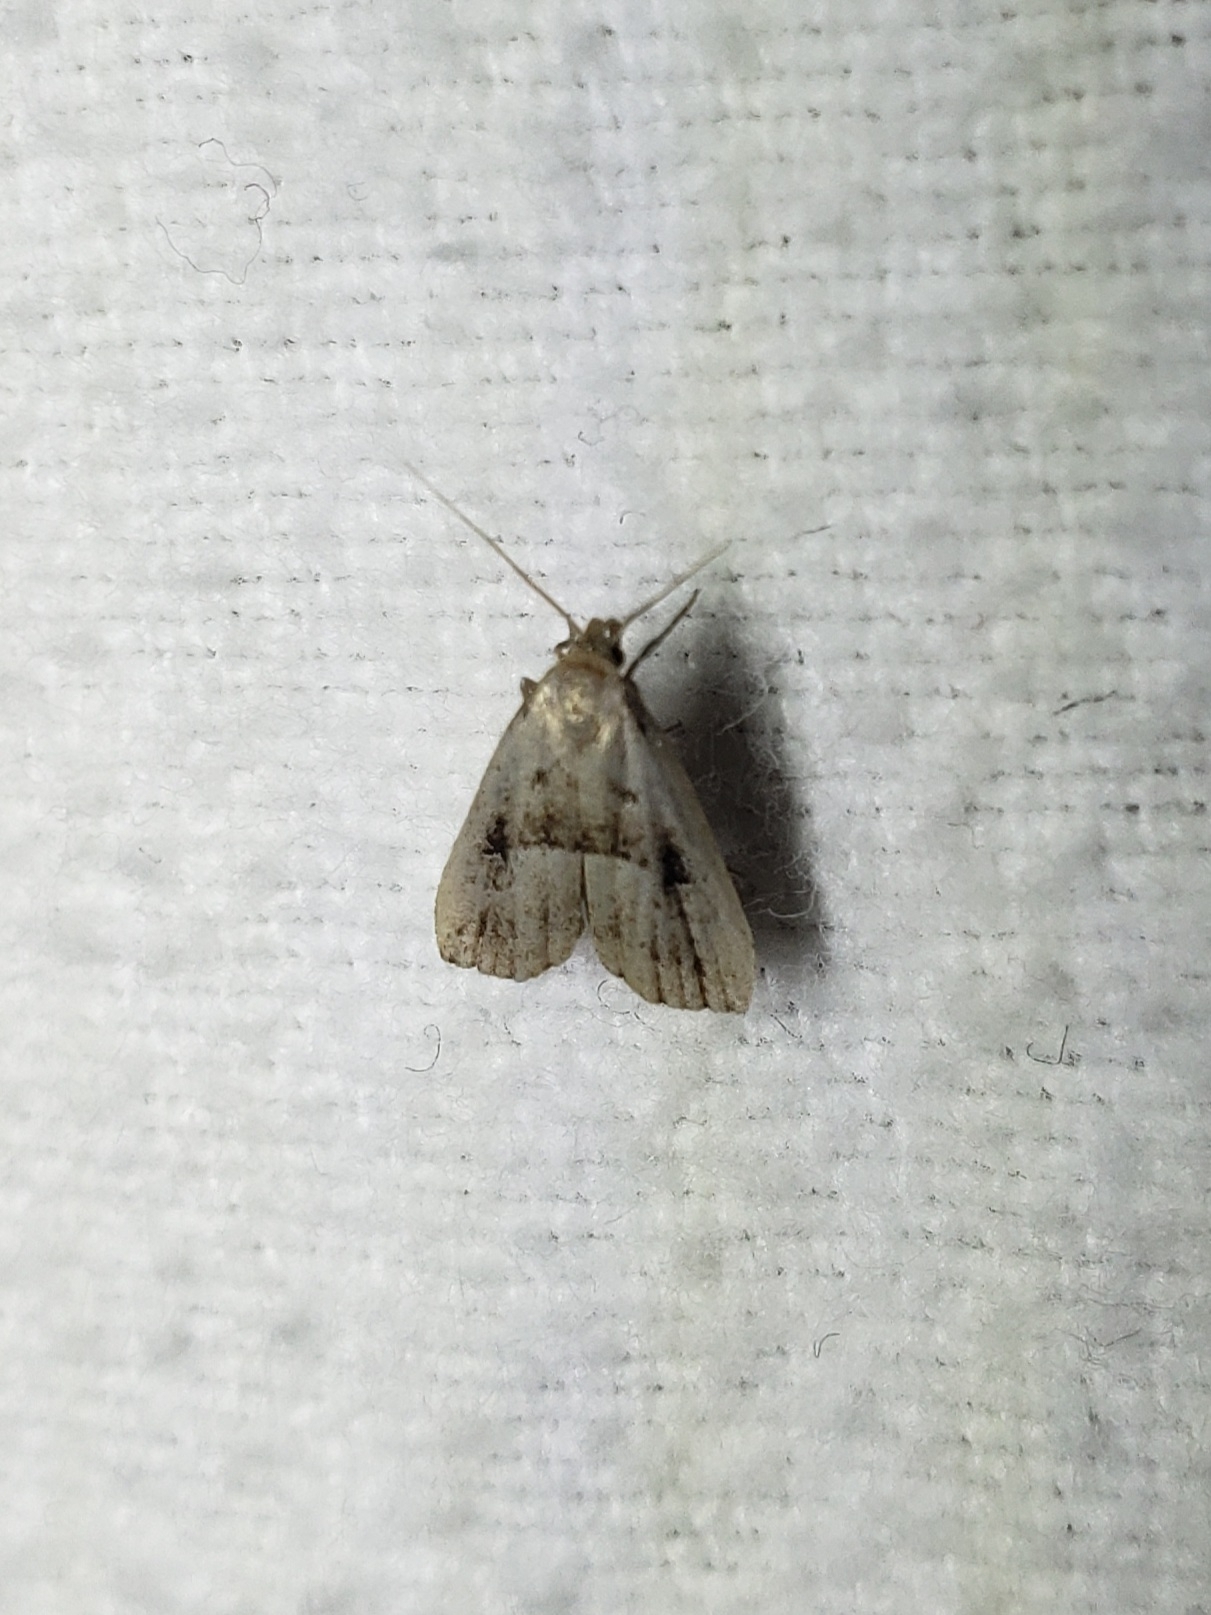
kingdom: Animalia
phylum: Arthropoda
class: Insecta
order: Lepidoptera
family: Erebidae
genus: Hypenodes
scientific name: Hypenodes fractilinea
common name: Broken-line hypenodes moth
